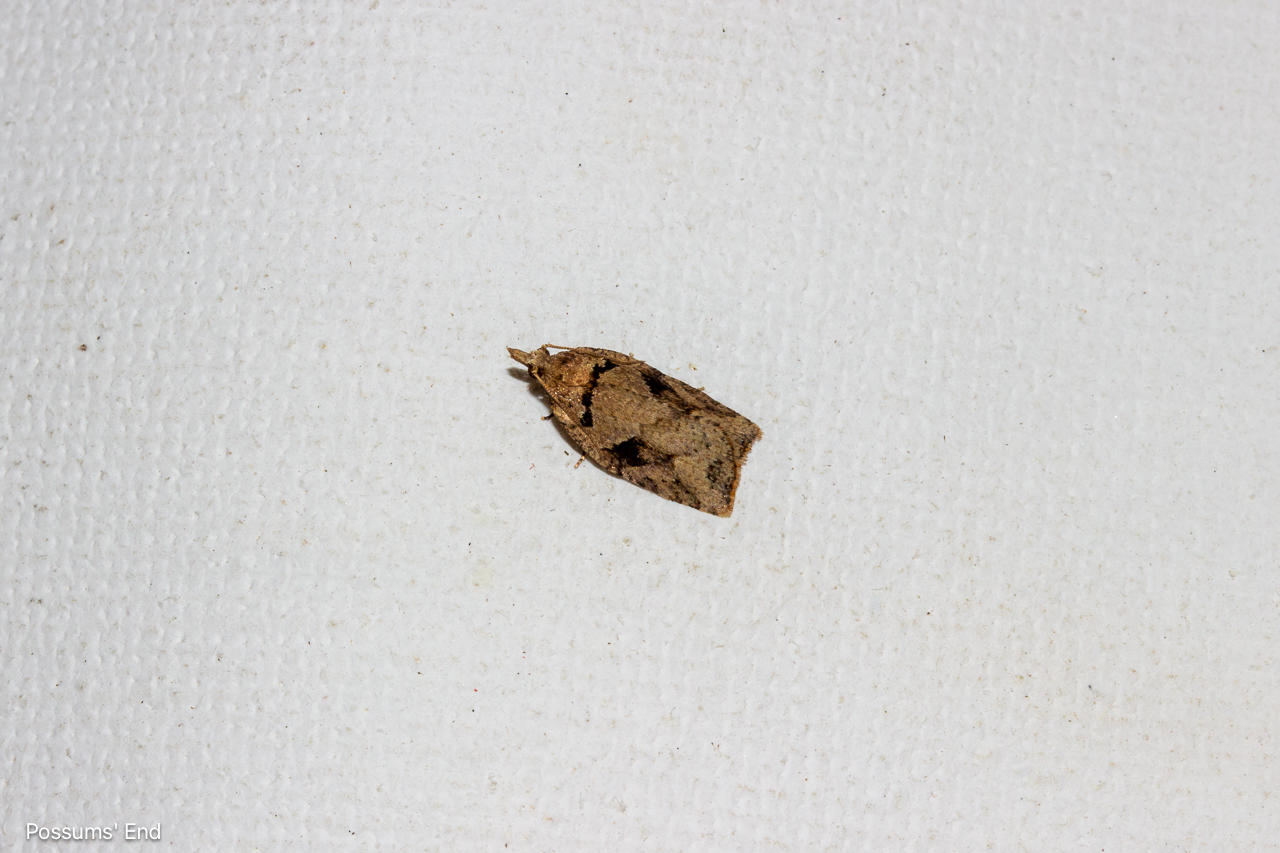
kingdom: Animalia
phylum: Arthropoda
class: Insecta
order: Lepidoptera
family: Tortricidae
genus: Ctenopseustis
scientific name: Ctenopseustis obliquana
